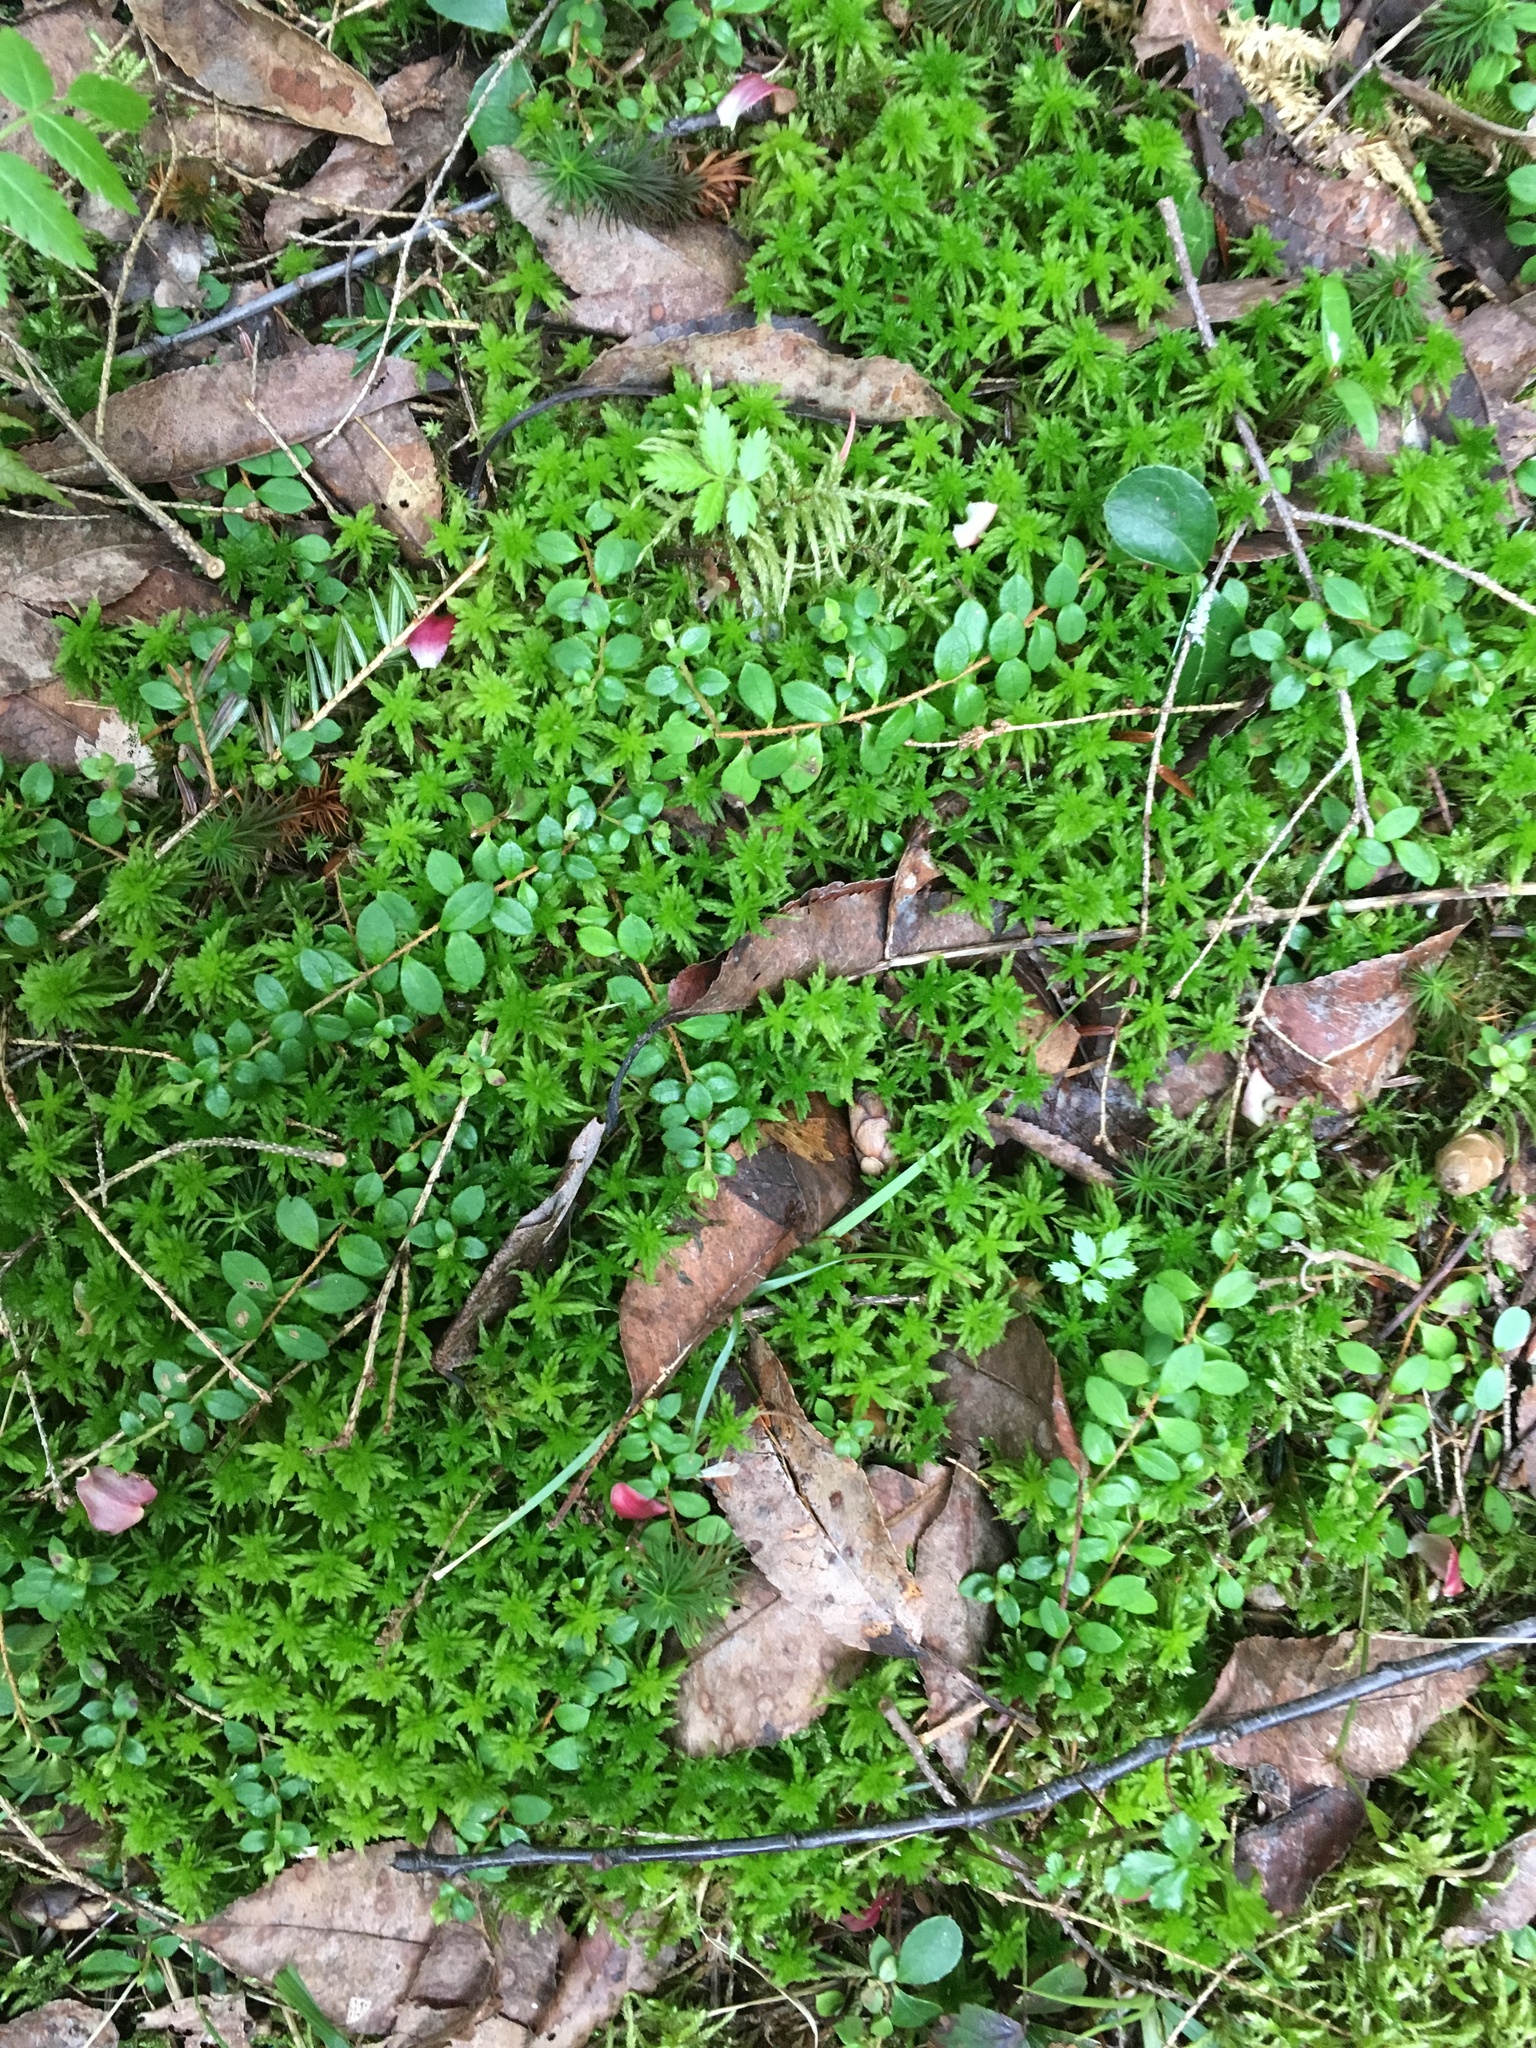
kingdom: Plantae
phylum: Tracheophyta
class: Magnoliopsida
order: Ericales
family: Ericaceae
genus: Gaultheria
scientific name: Gaultheria hispidula
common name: Cancer wintergreen
